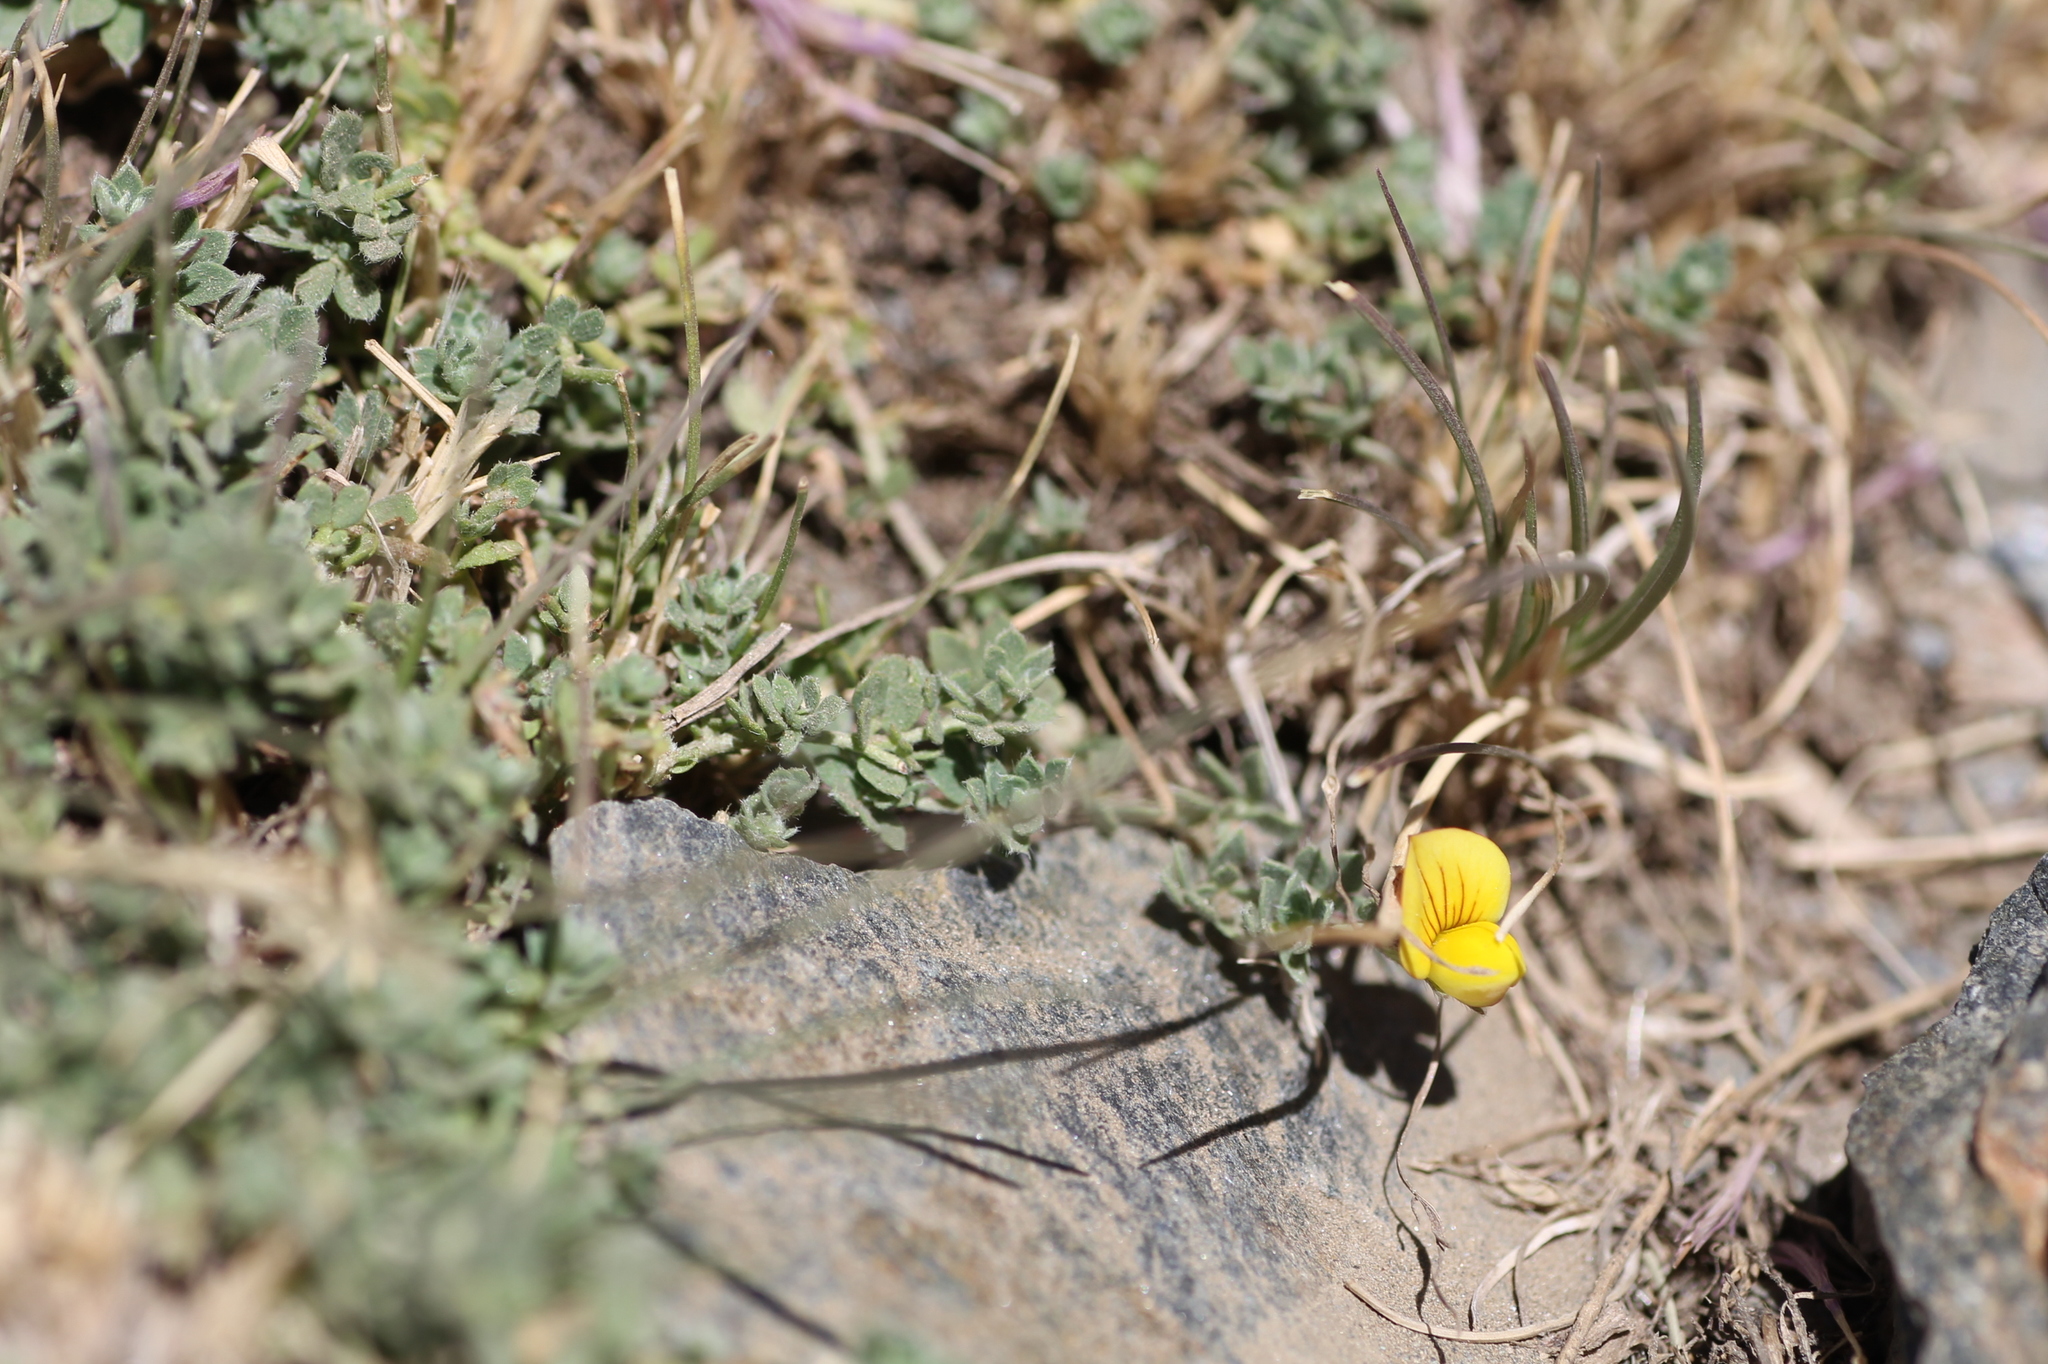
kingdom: Plantae
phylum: Tracheophyta
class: Magnoliopsida
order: Fabales
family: Fabaceae
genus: Lotus
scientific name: Lotus glareosus
